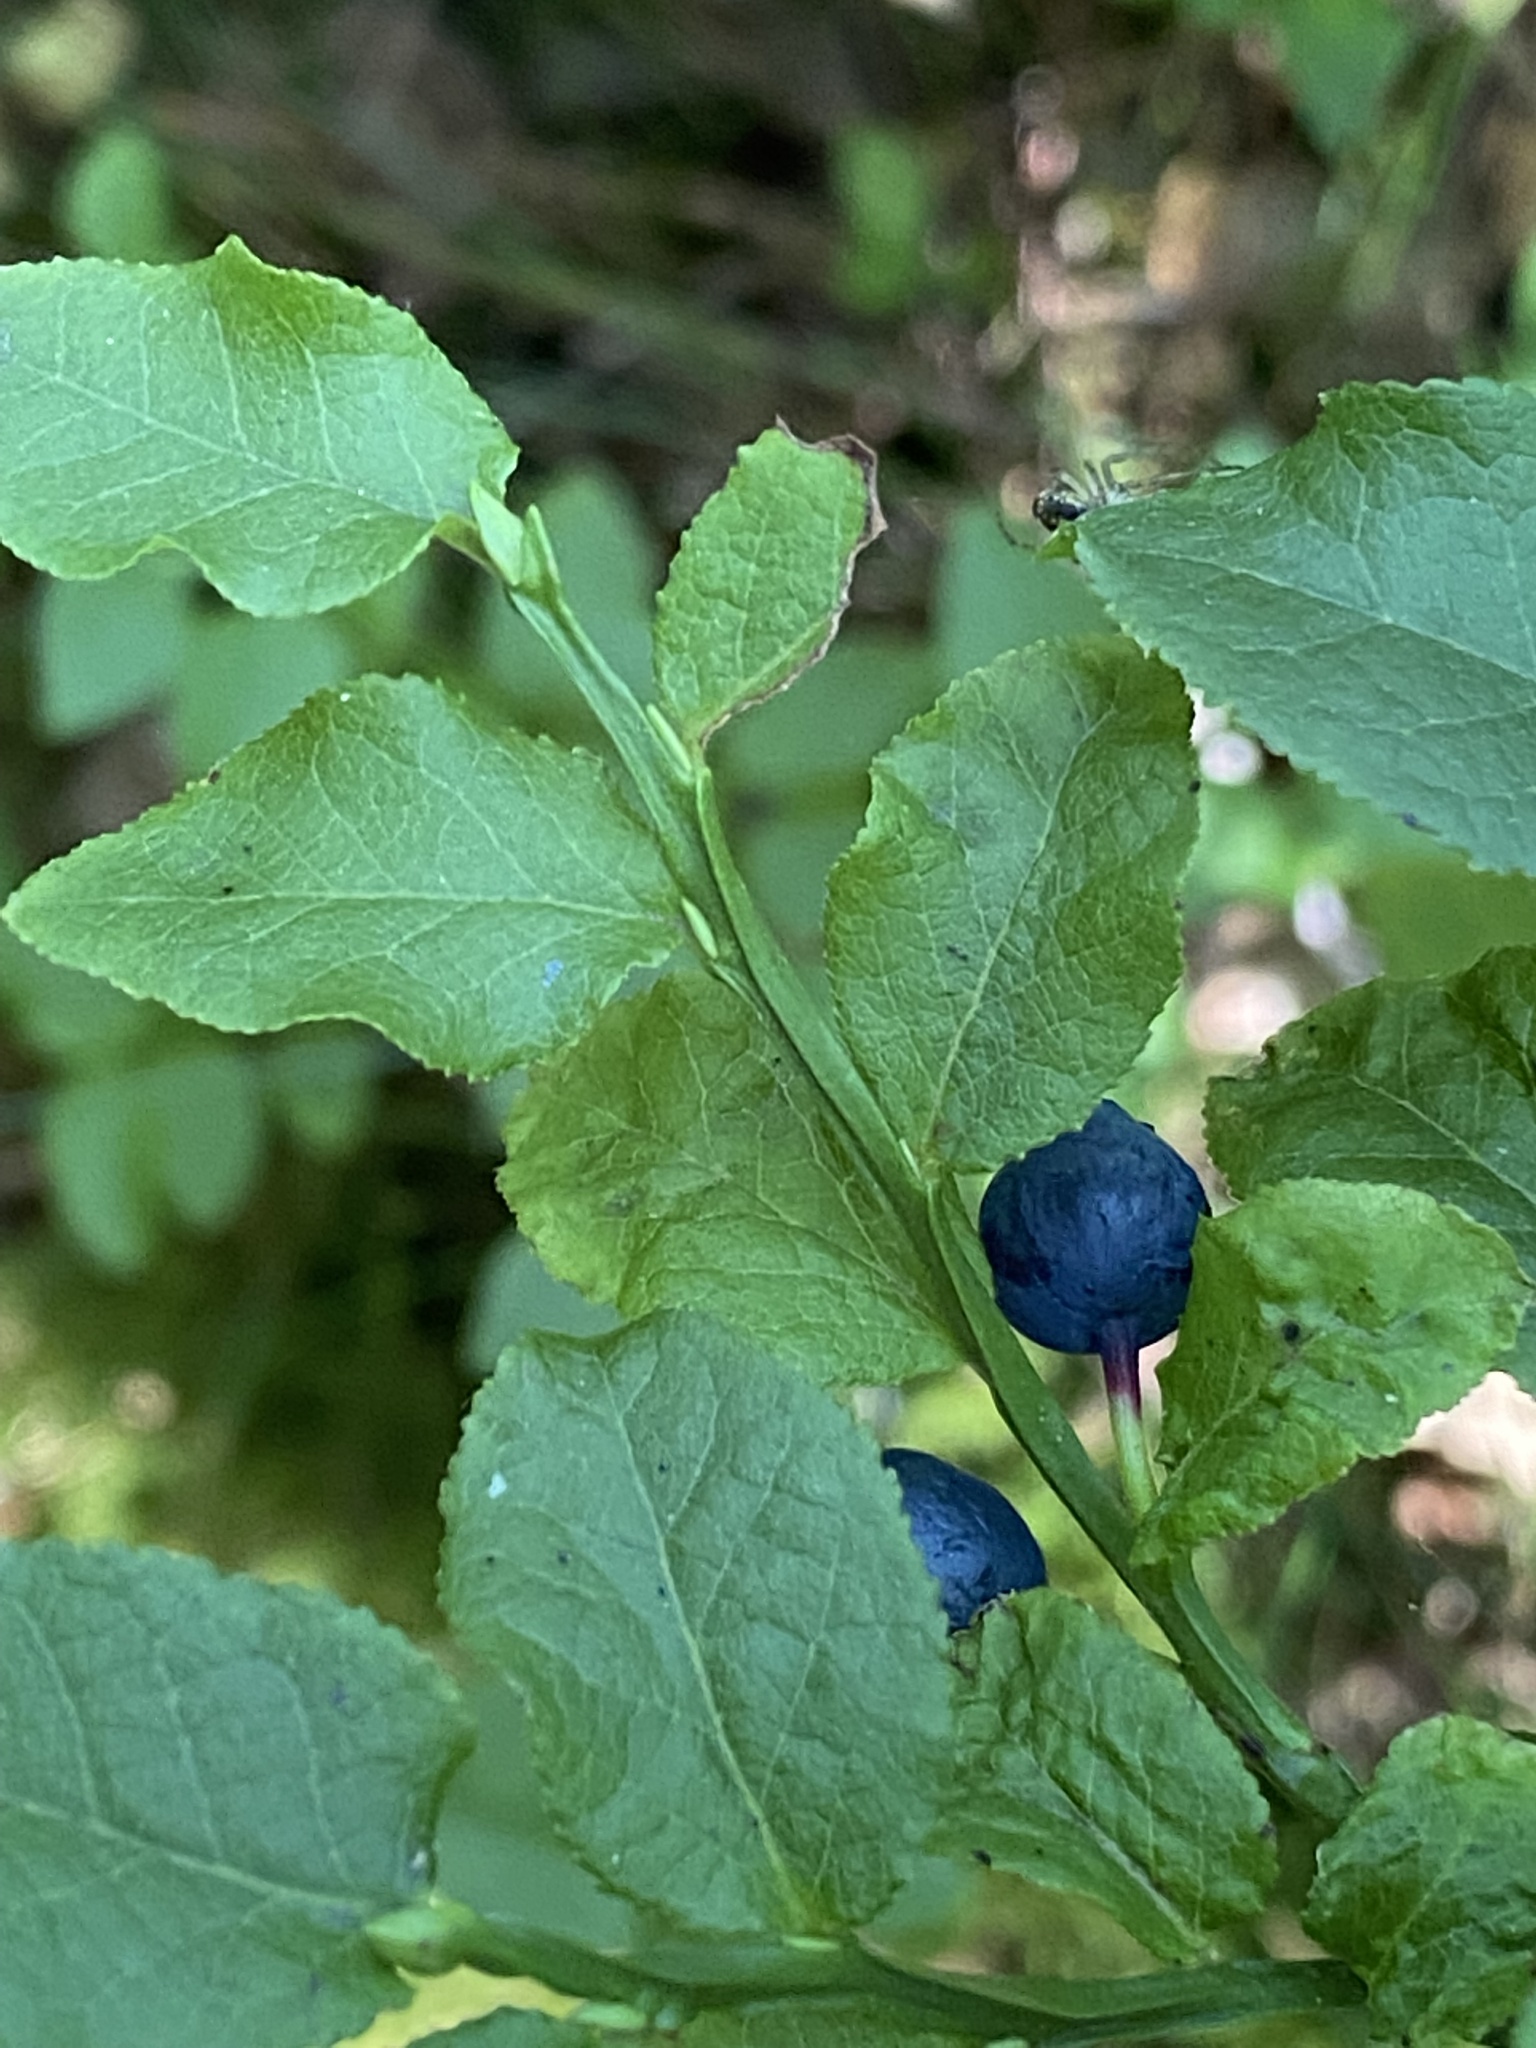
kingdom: Plantae
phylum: Tracheophyta
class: Magnoliopsida
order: Ericales
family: Ericaceae
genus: Vaccinium
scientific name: Vaccinium myrtillus
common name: Bilberry
